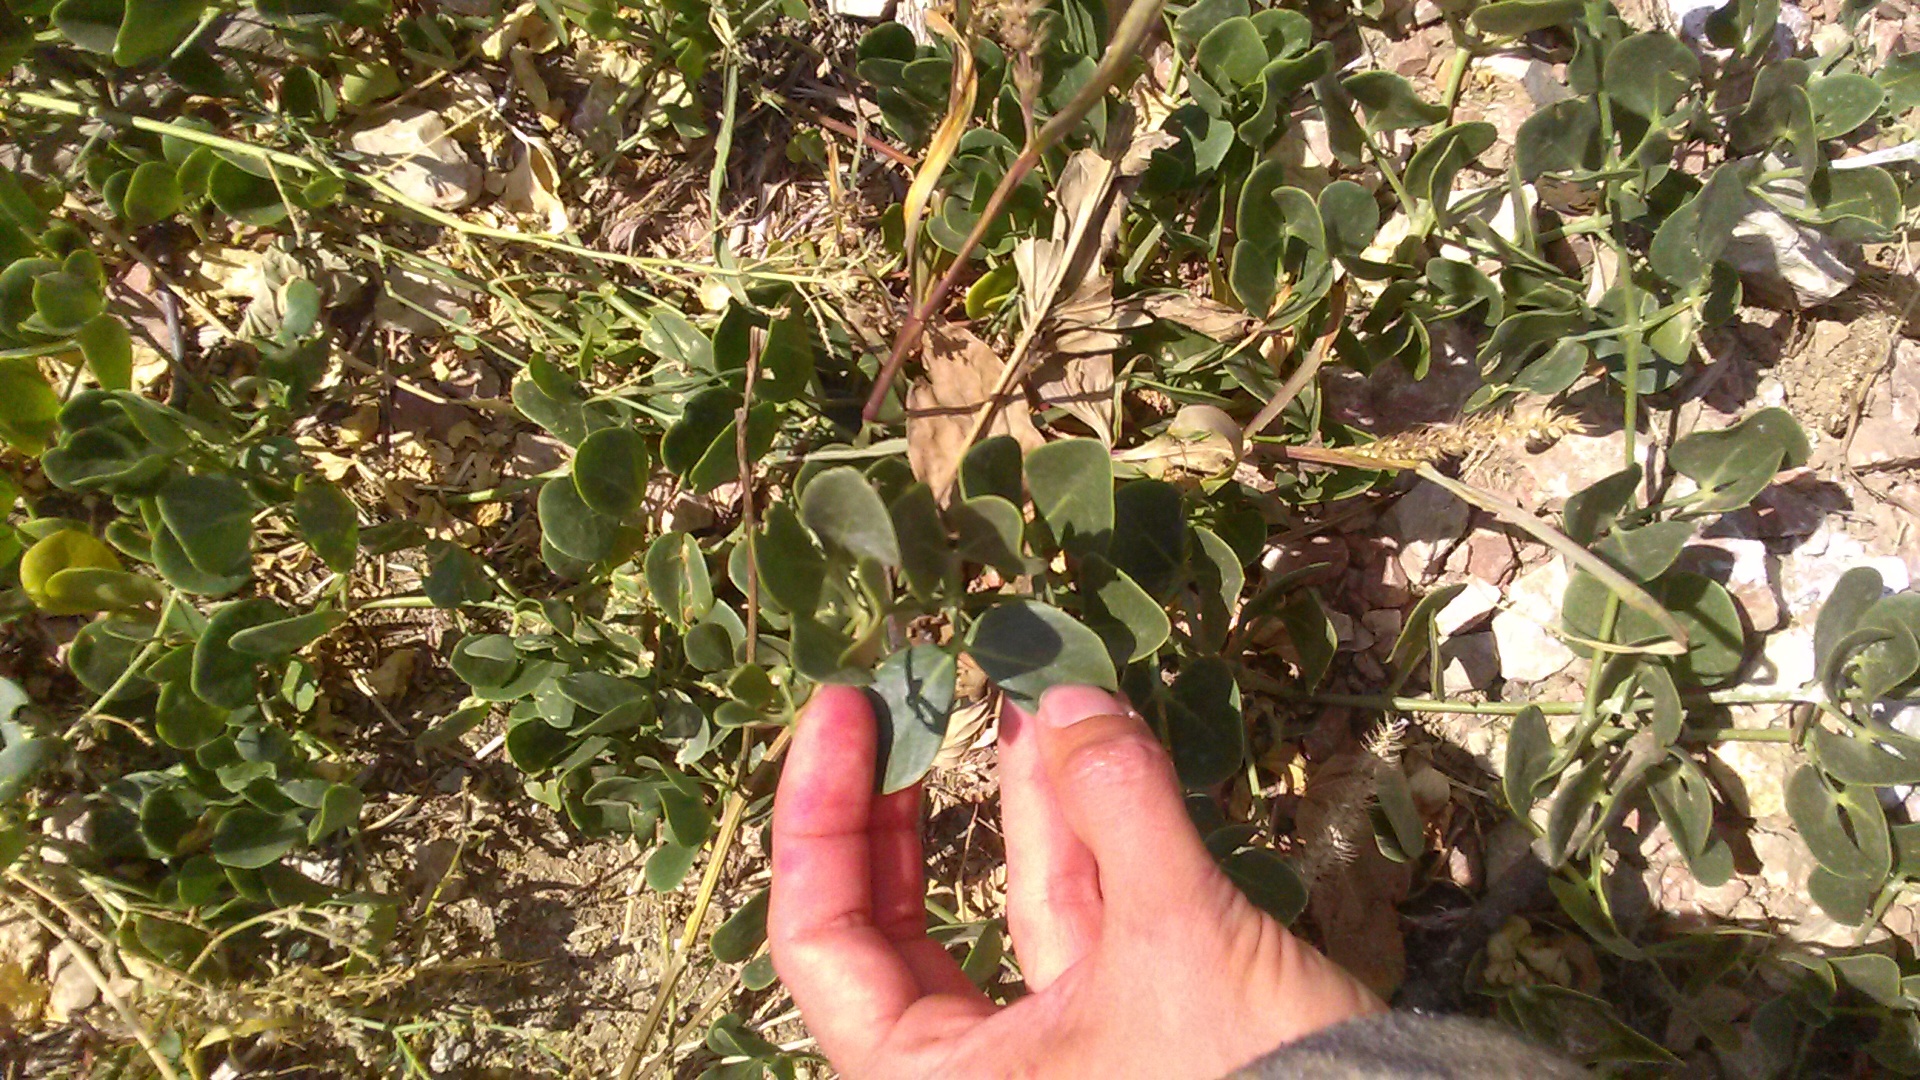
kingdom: Plantae
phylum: Tracheophyta
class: Magnoliopsida
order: Zygophyllales
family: Zygophyllaceae
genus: Zygophyllum
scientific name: Zygophyllum fabago
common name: Syrian beancaper
